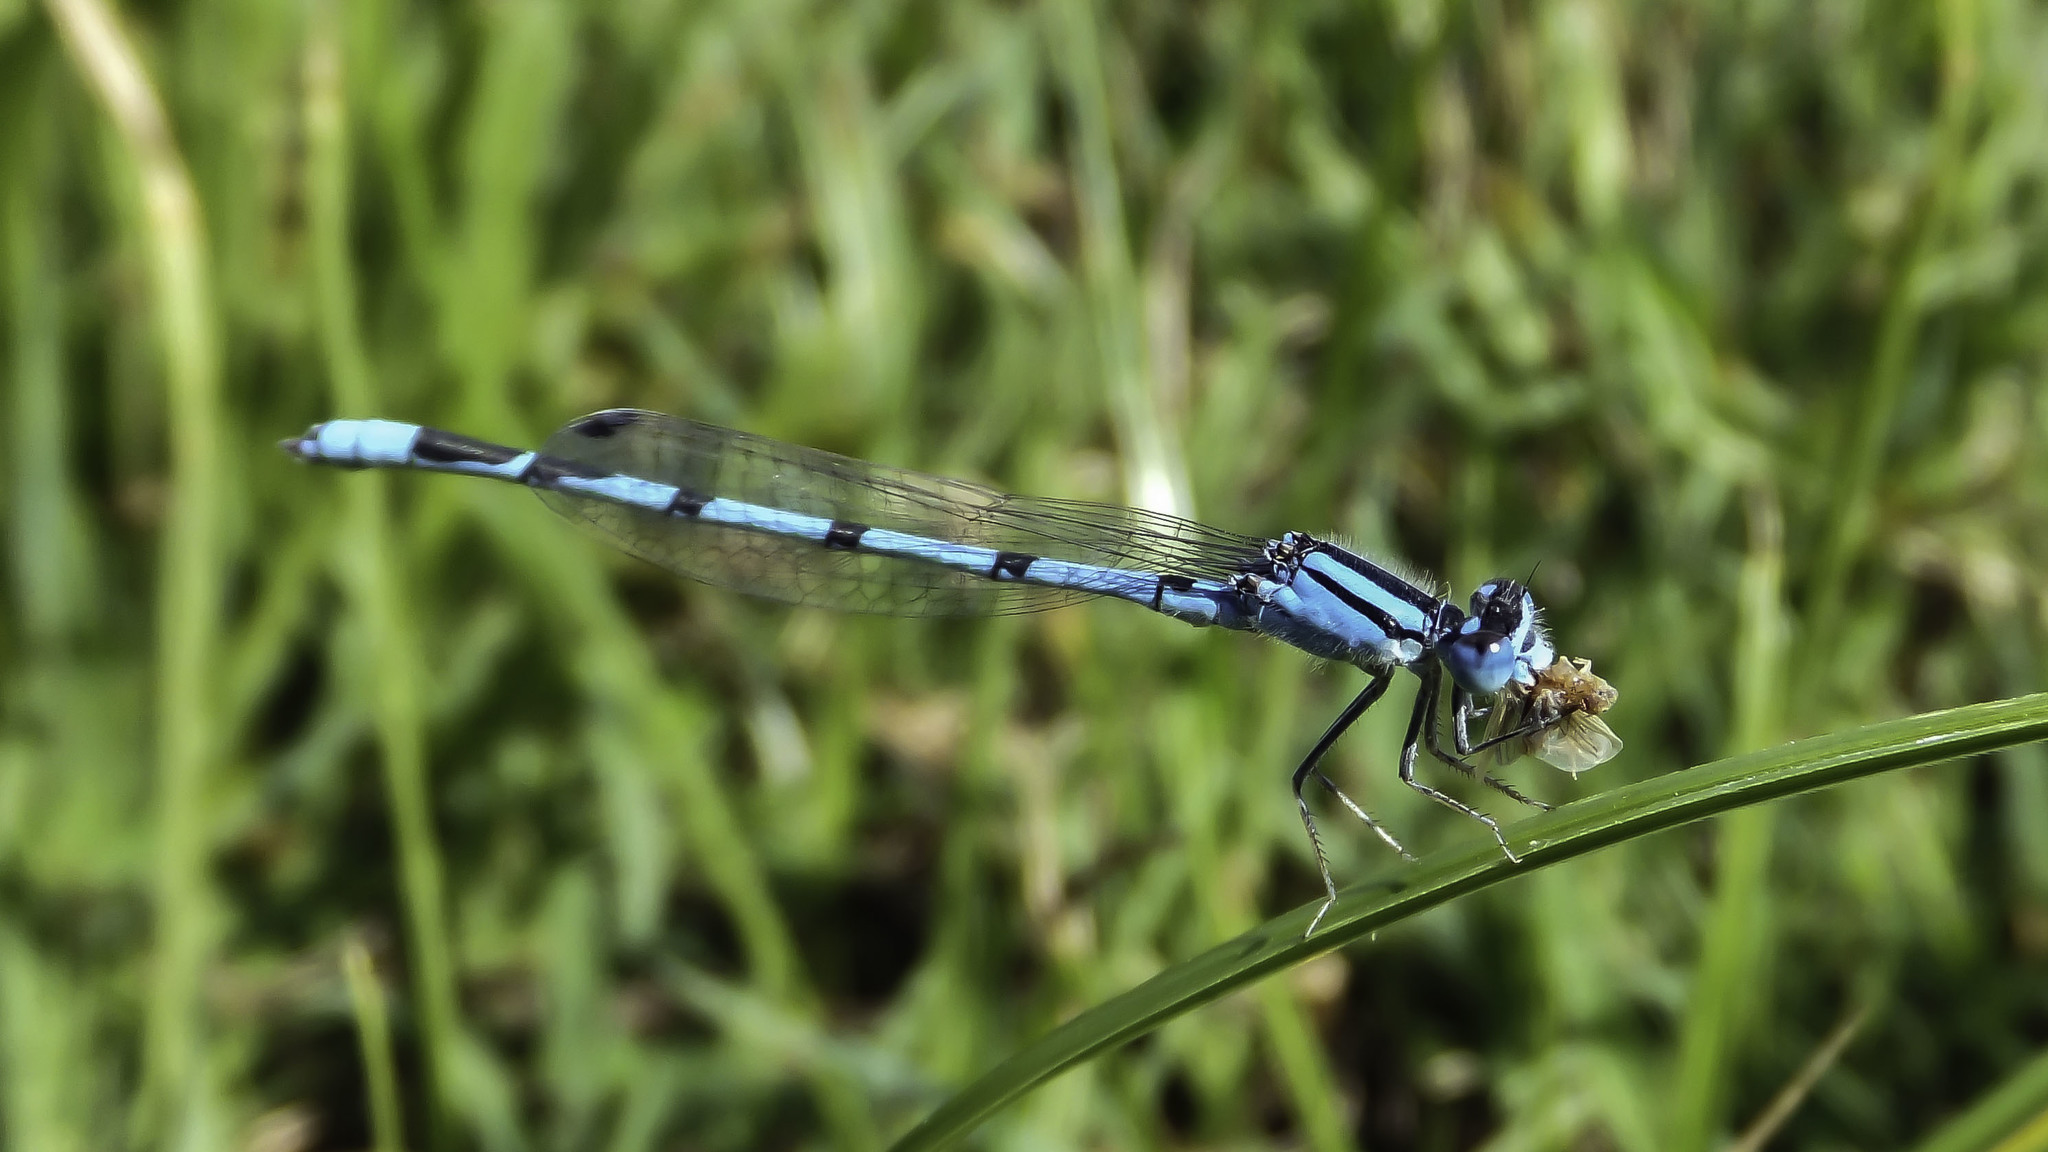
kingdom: Animalia
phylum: Arthropoda
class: Insecta
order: Odonata
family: Coenagrionidae
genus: Enallagma
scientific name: Enallagma civile
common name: Damselfly
